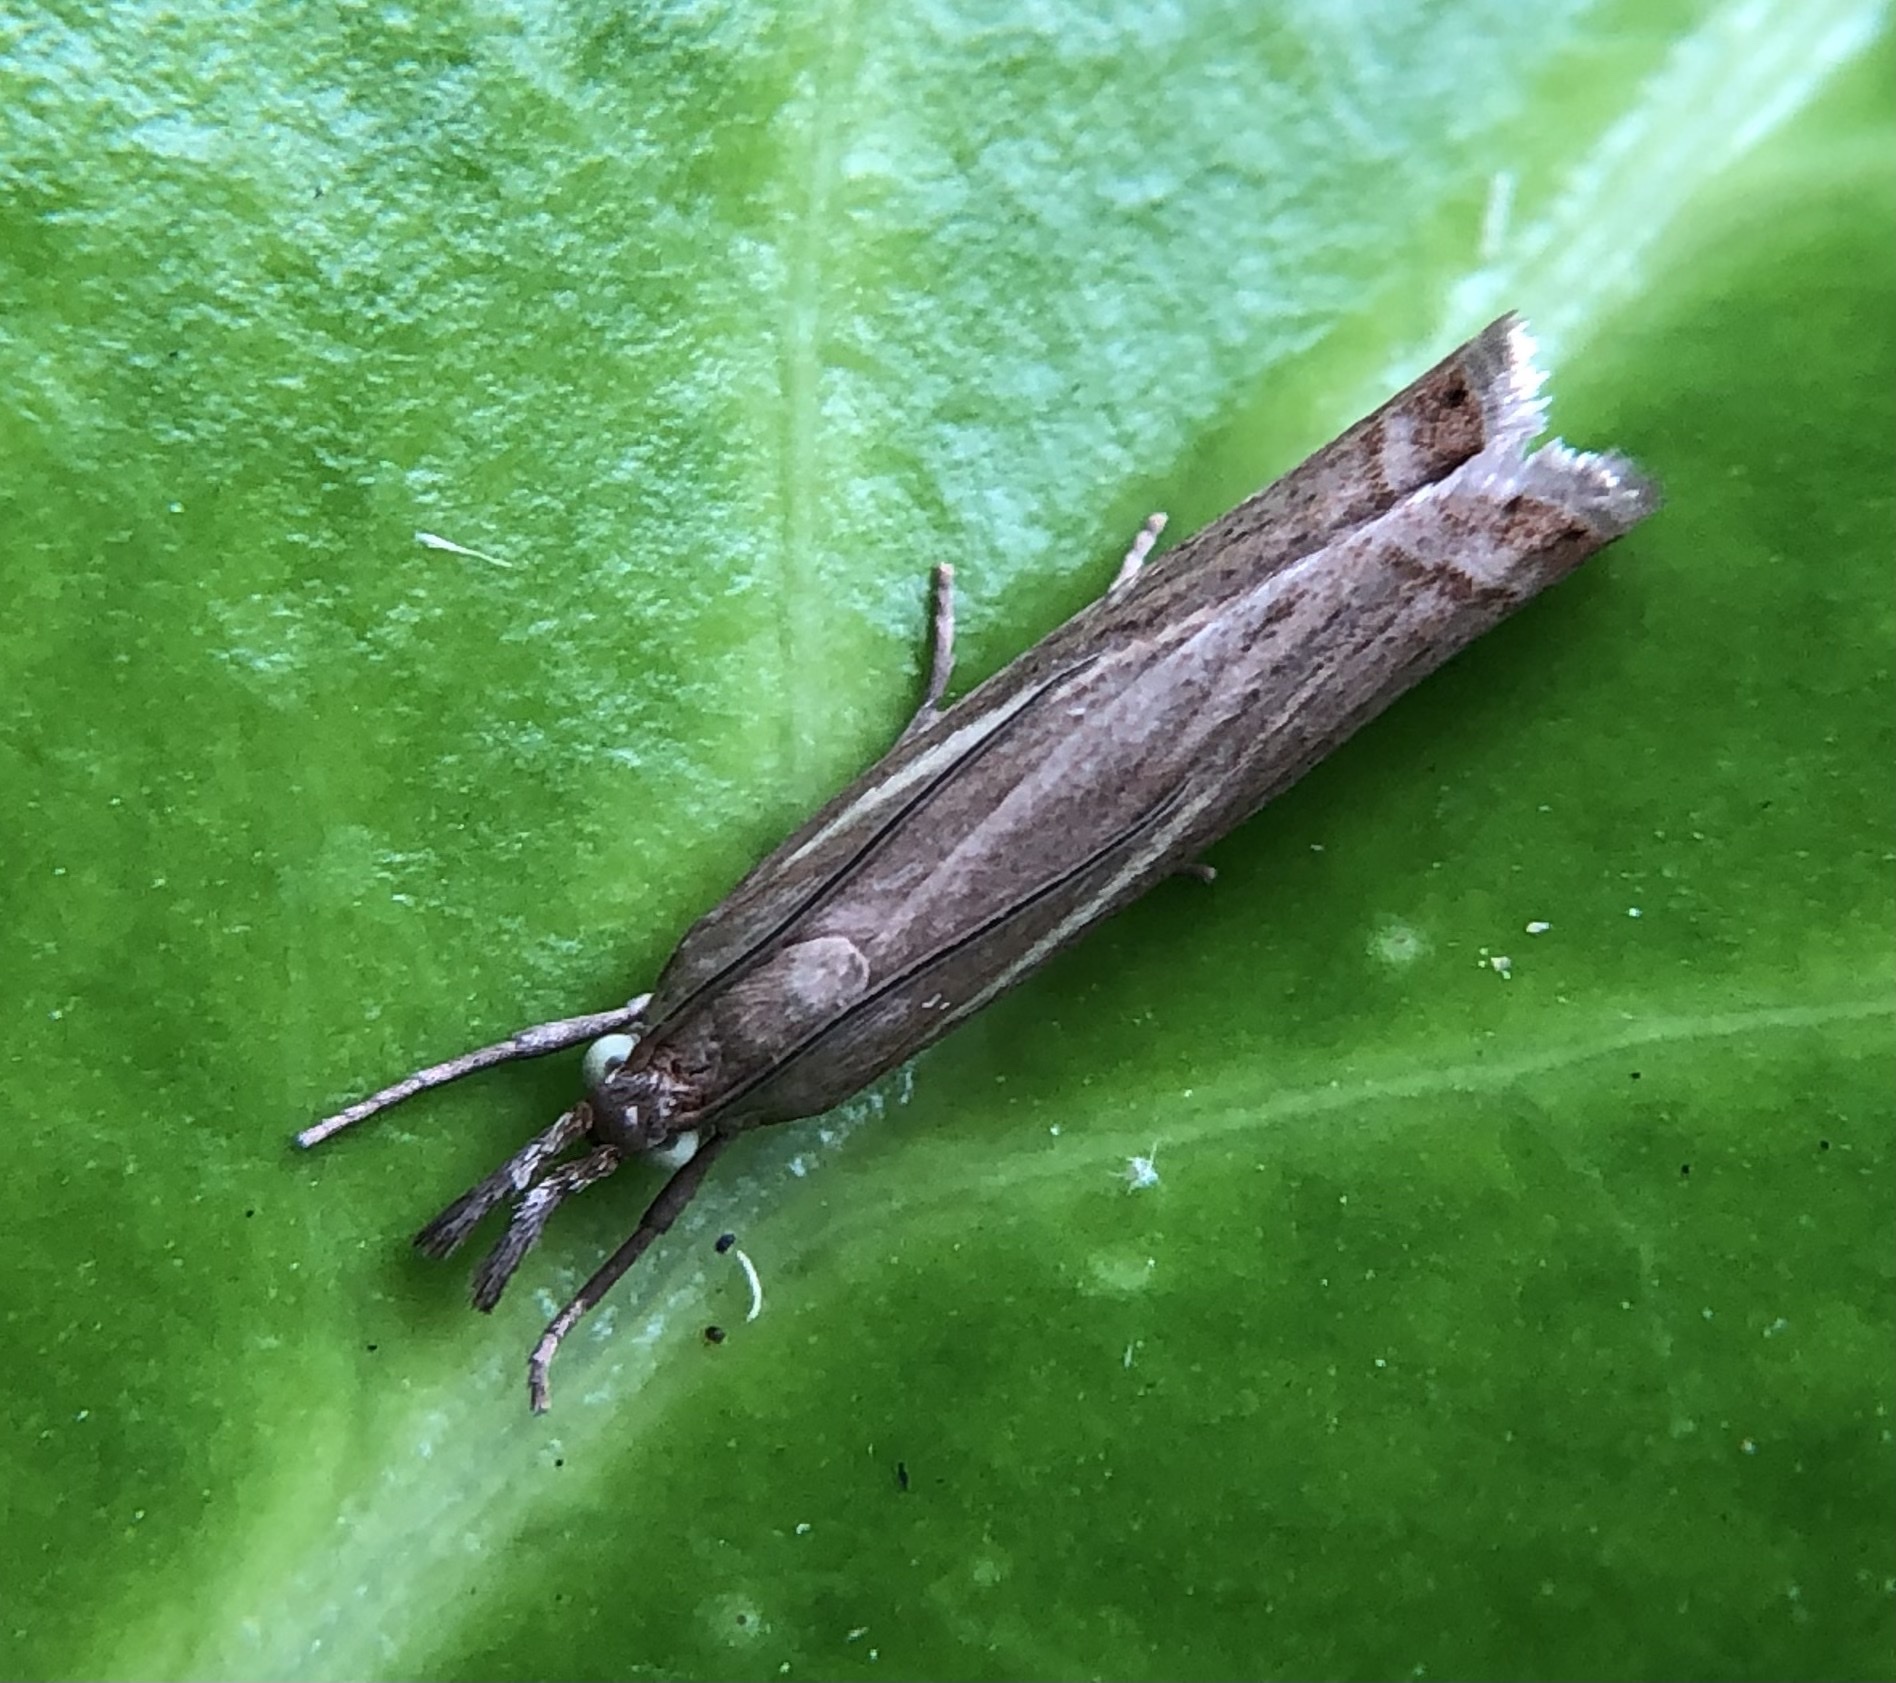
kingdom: Animalia
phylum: Arthropoda
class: Insecta
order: Lepidoptera
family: Crambidae
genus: Chrysoteuchia
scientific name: Chrysoteuchia culmella
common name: Garden grass-veneer
